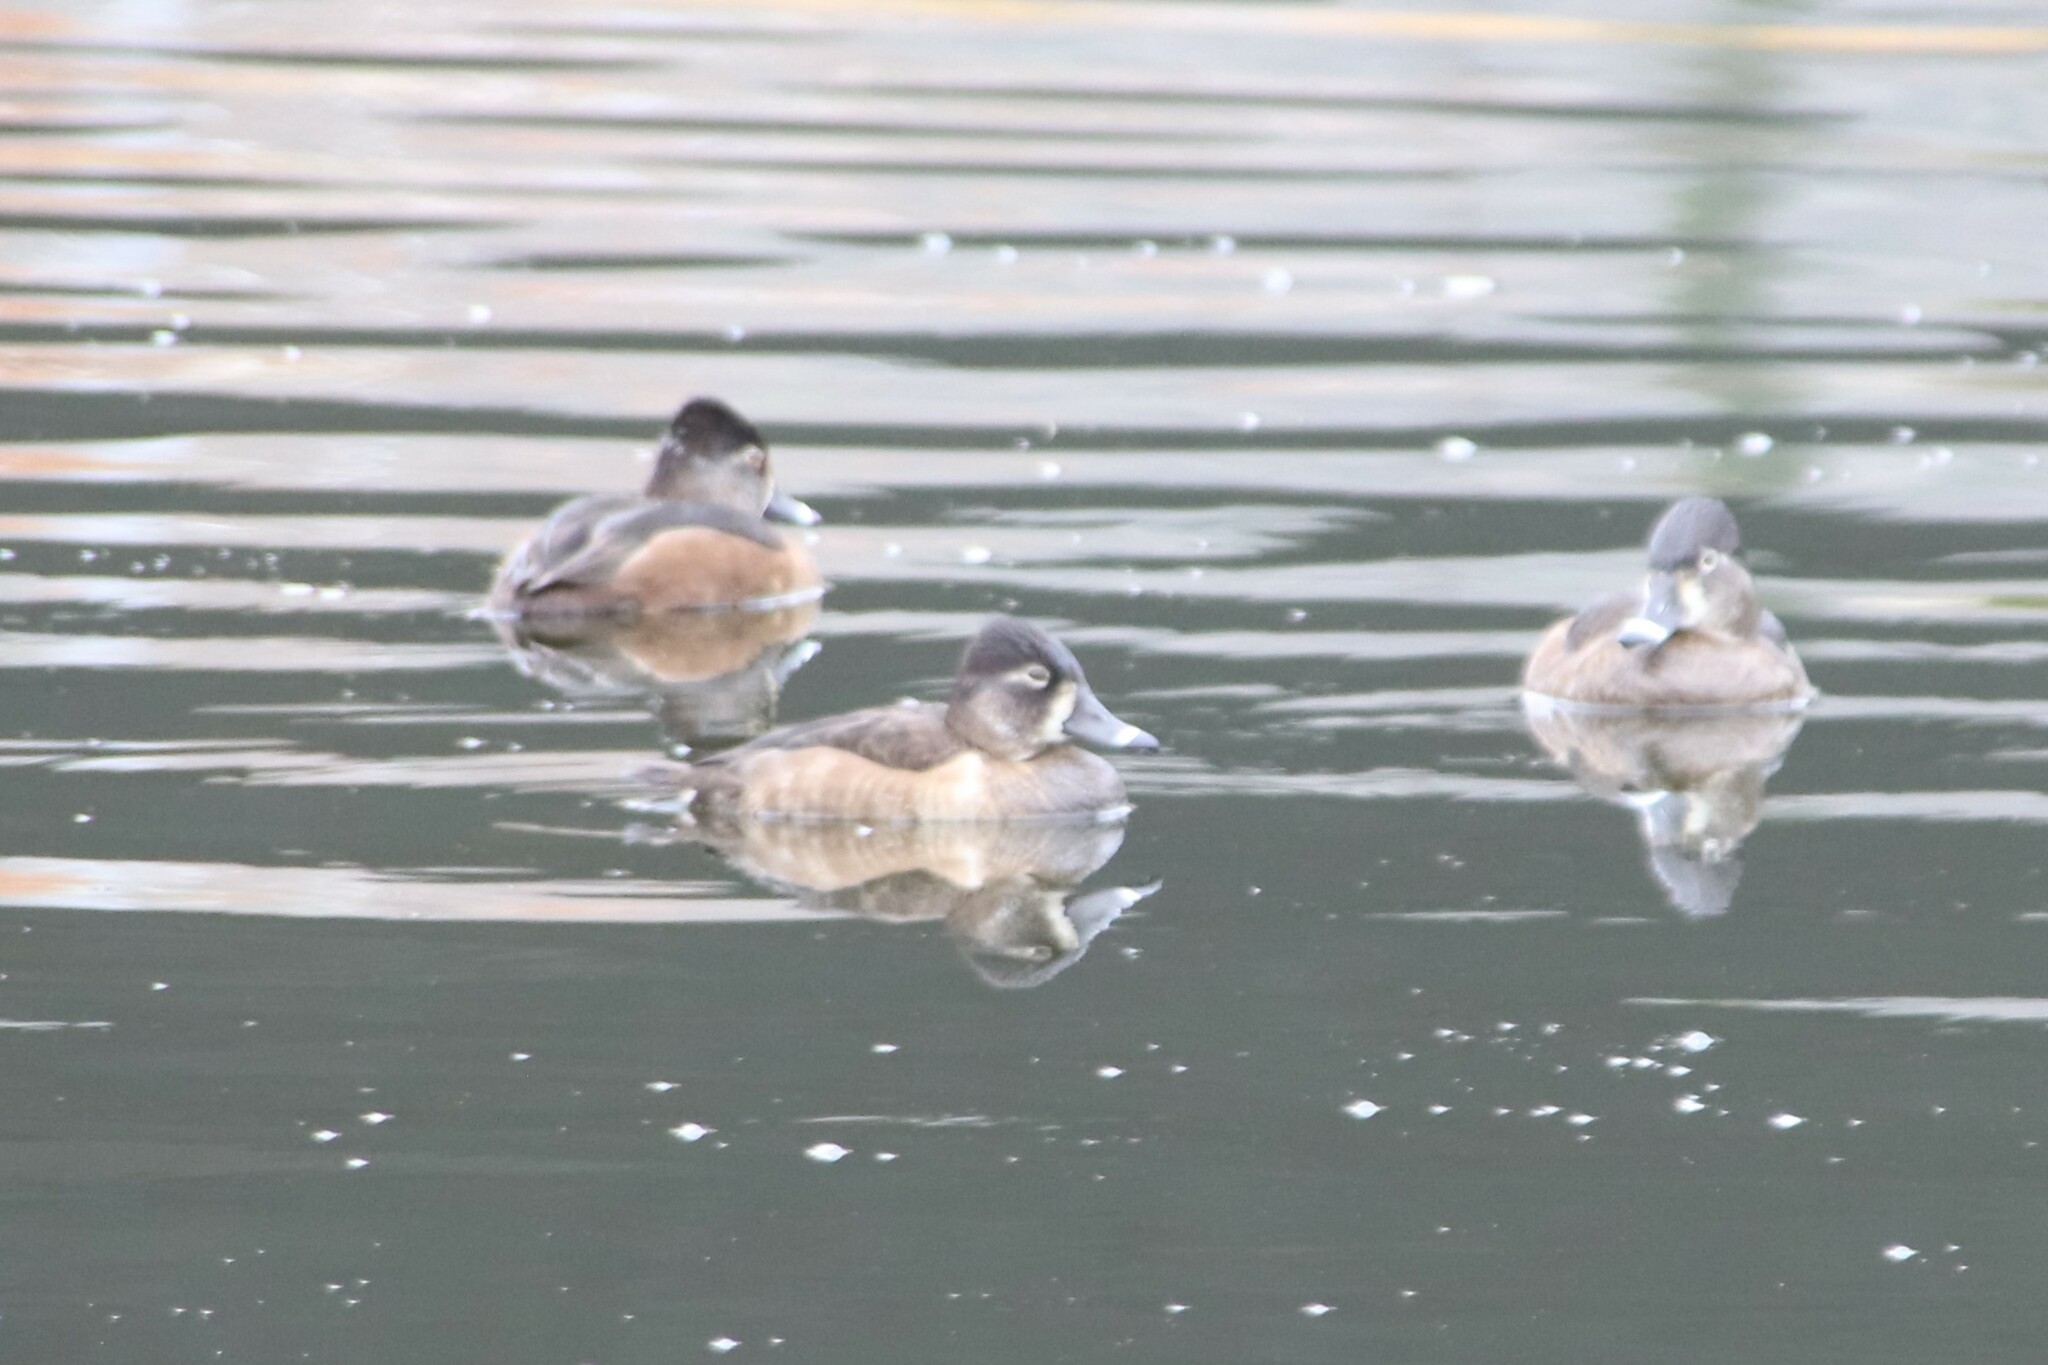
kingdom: Animalia
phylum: Chordata
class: Aves
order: Anseriformes
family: Anatidae
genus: Aythya
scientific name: Aythya collaris
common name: Ring-necked duck
